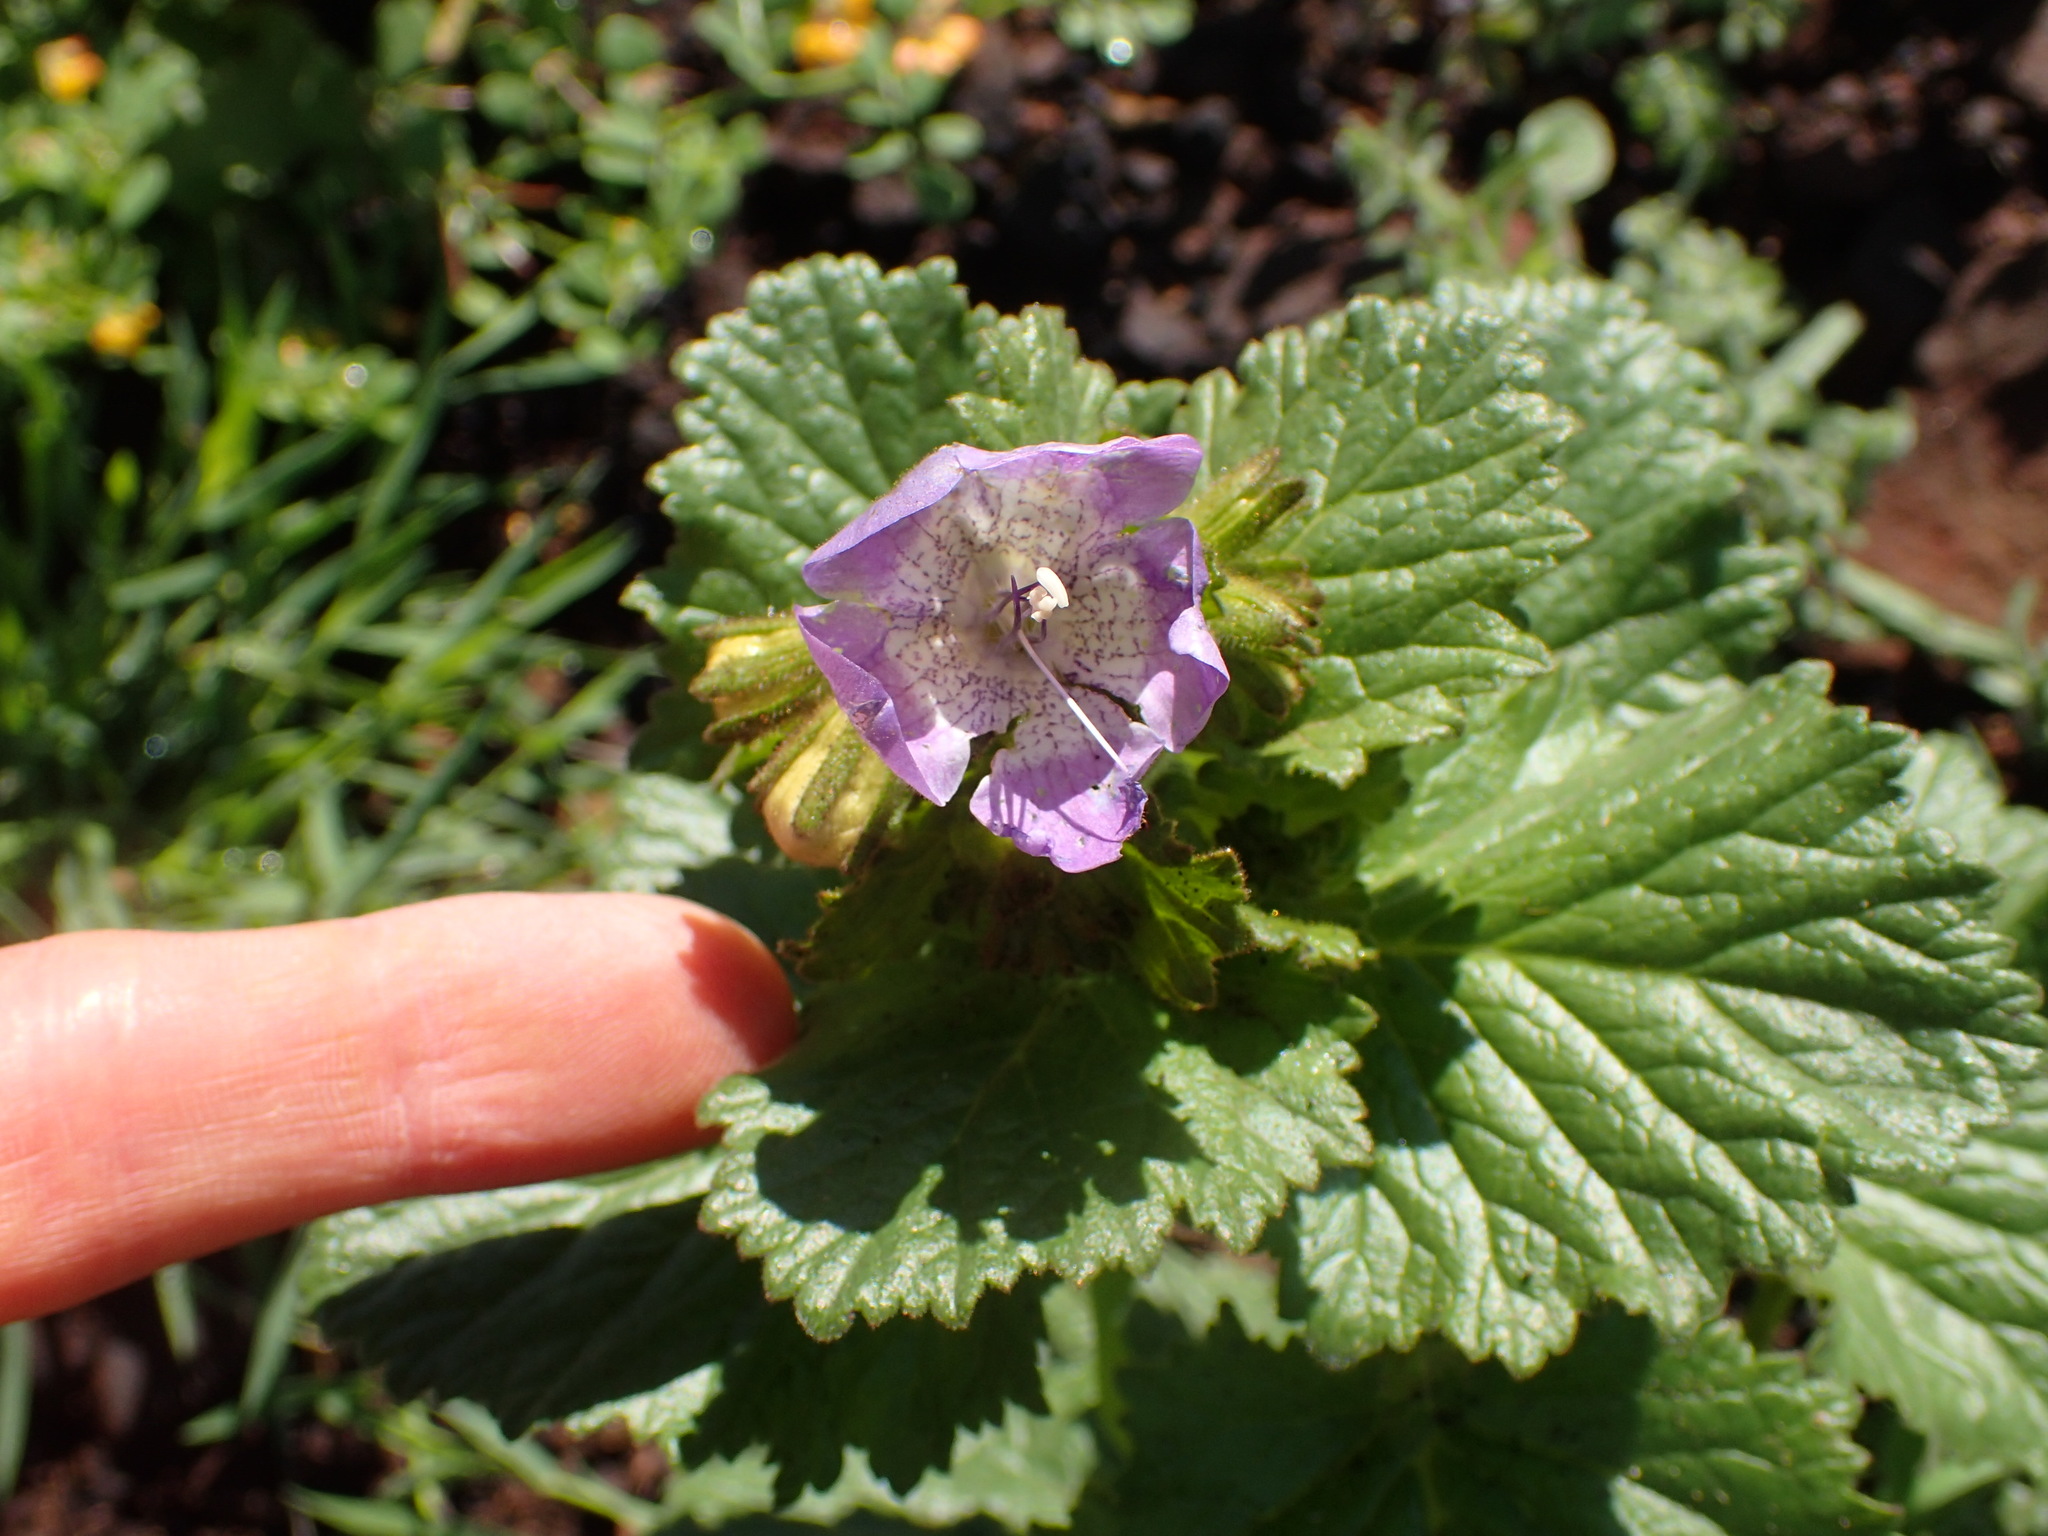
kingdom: Plantae
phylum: Tracheophyta
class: Magnoliopsida
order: Boraginales
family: Hydrophyllaceae
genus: Phacelia
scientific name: Phacelia grandiflora
